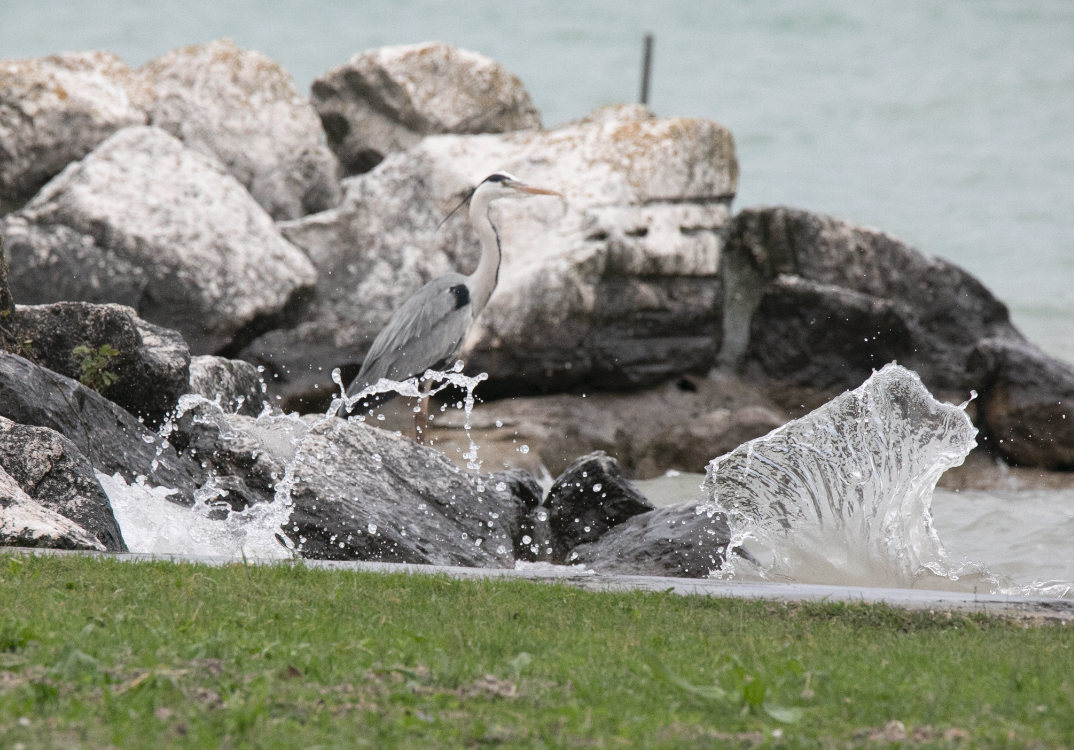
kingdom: Animalia
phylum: Chordata
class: Aves
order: Pelecaniformes
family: Ardeidae
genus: Ardea
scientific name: Ardea cinerea
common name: Grey heron
